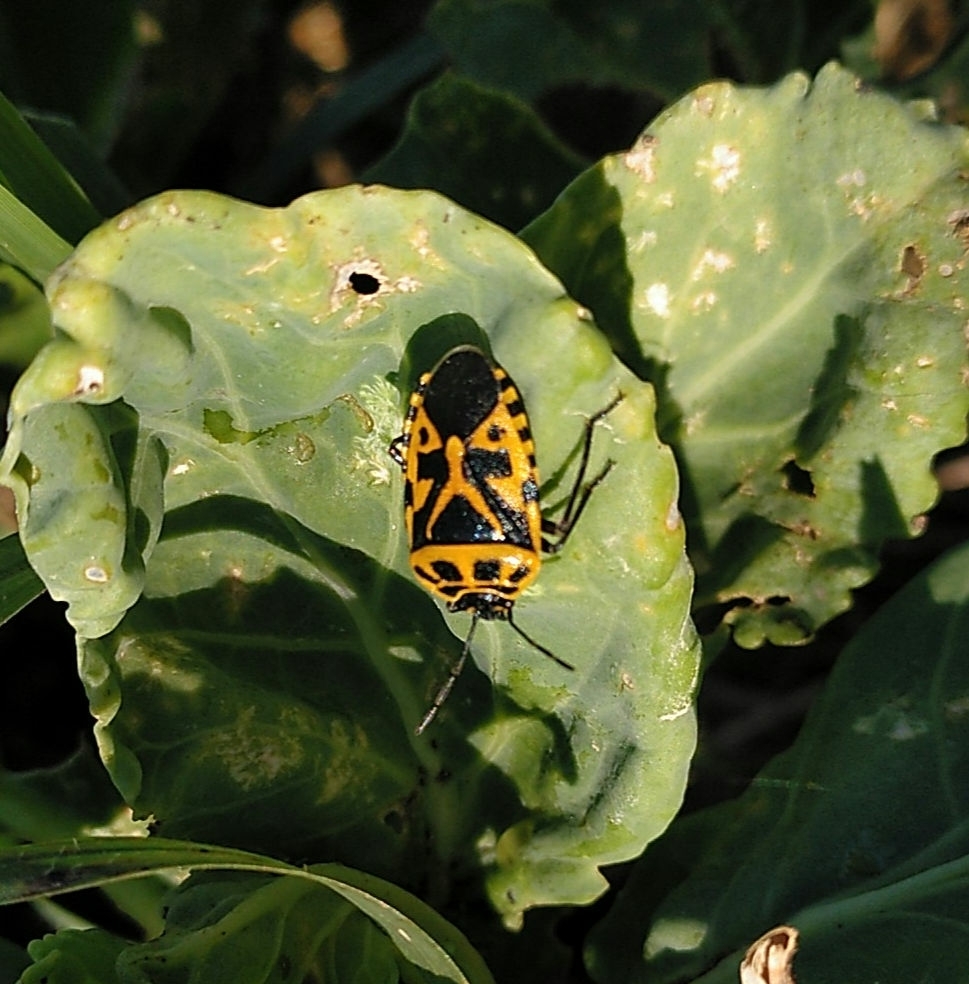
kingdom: Animalia
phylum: Arthropoda
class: Insecta
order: Hemiptera
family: Pentatomidae
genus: Eurydema
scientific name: Eurydema ventralis
